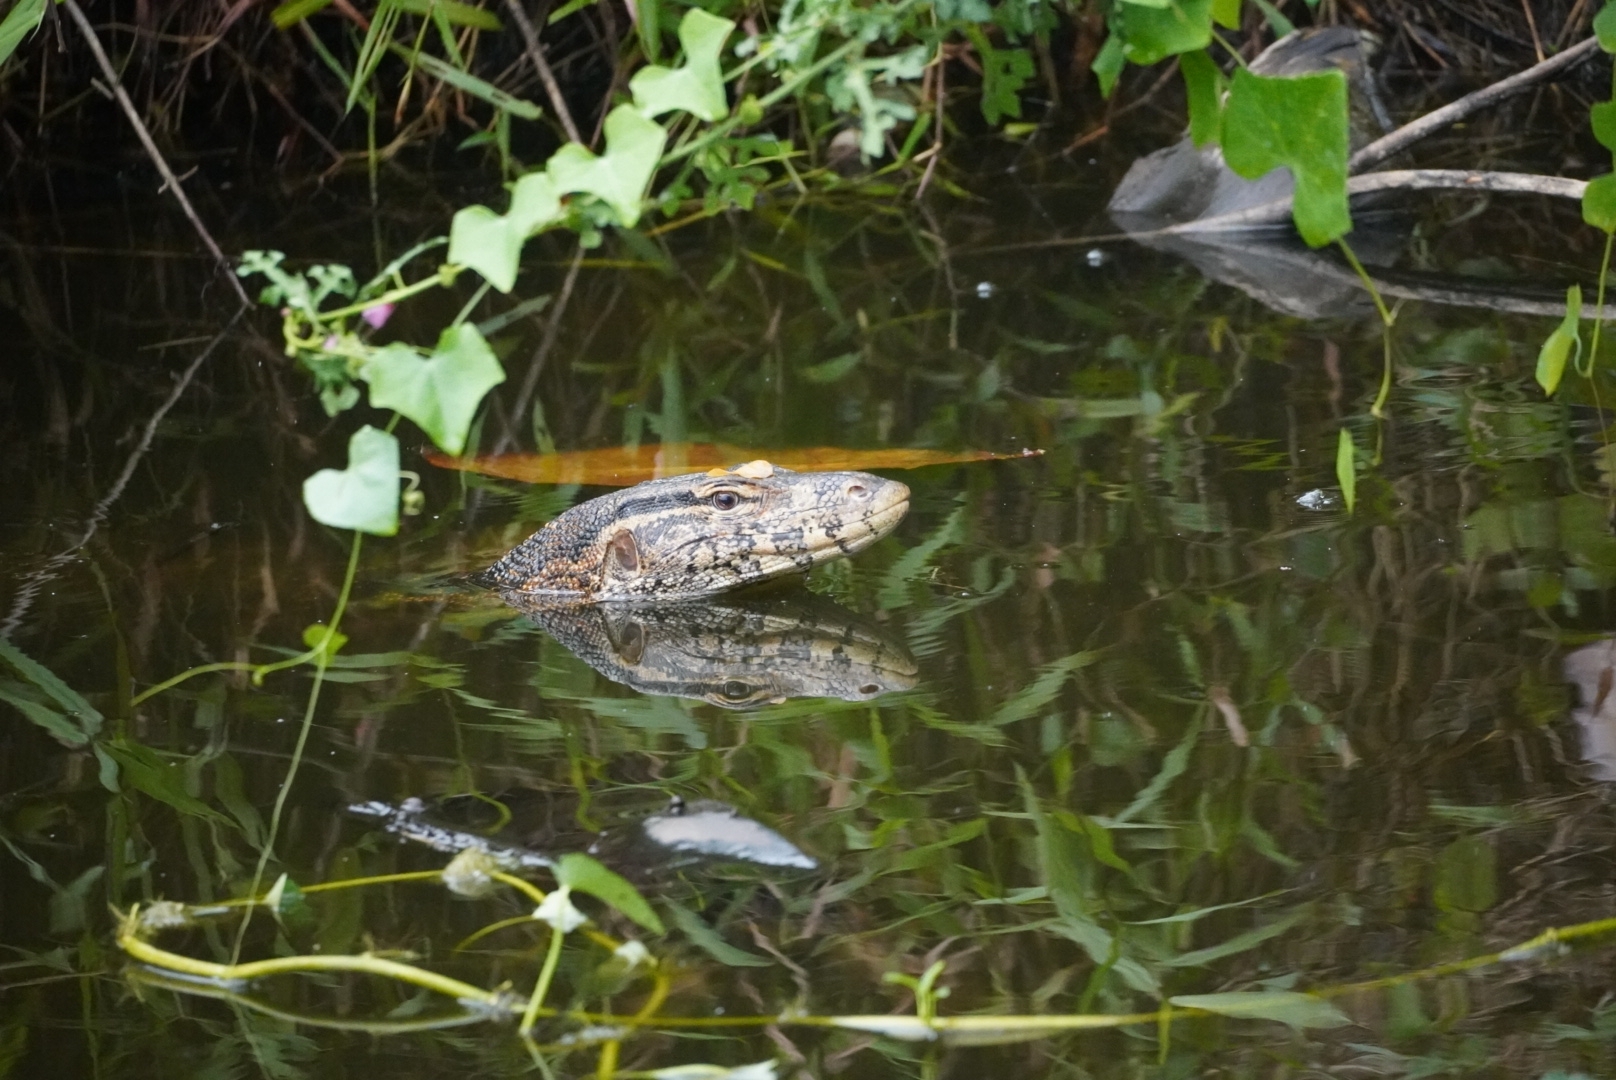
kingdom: Animalia
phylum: Chordata
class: Squamata
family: Varanidae
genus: Varanus
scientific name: Varanus salvator
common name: Common water monitor
